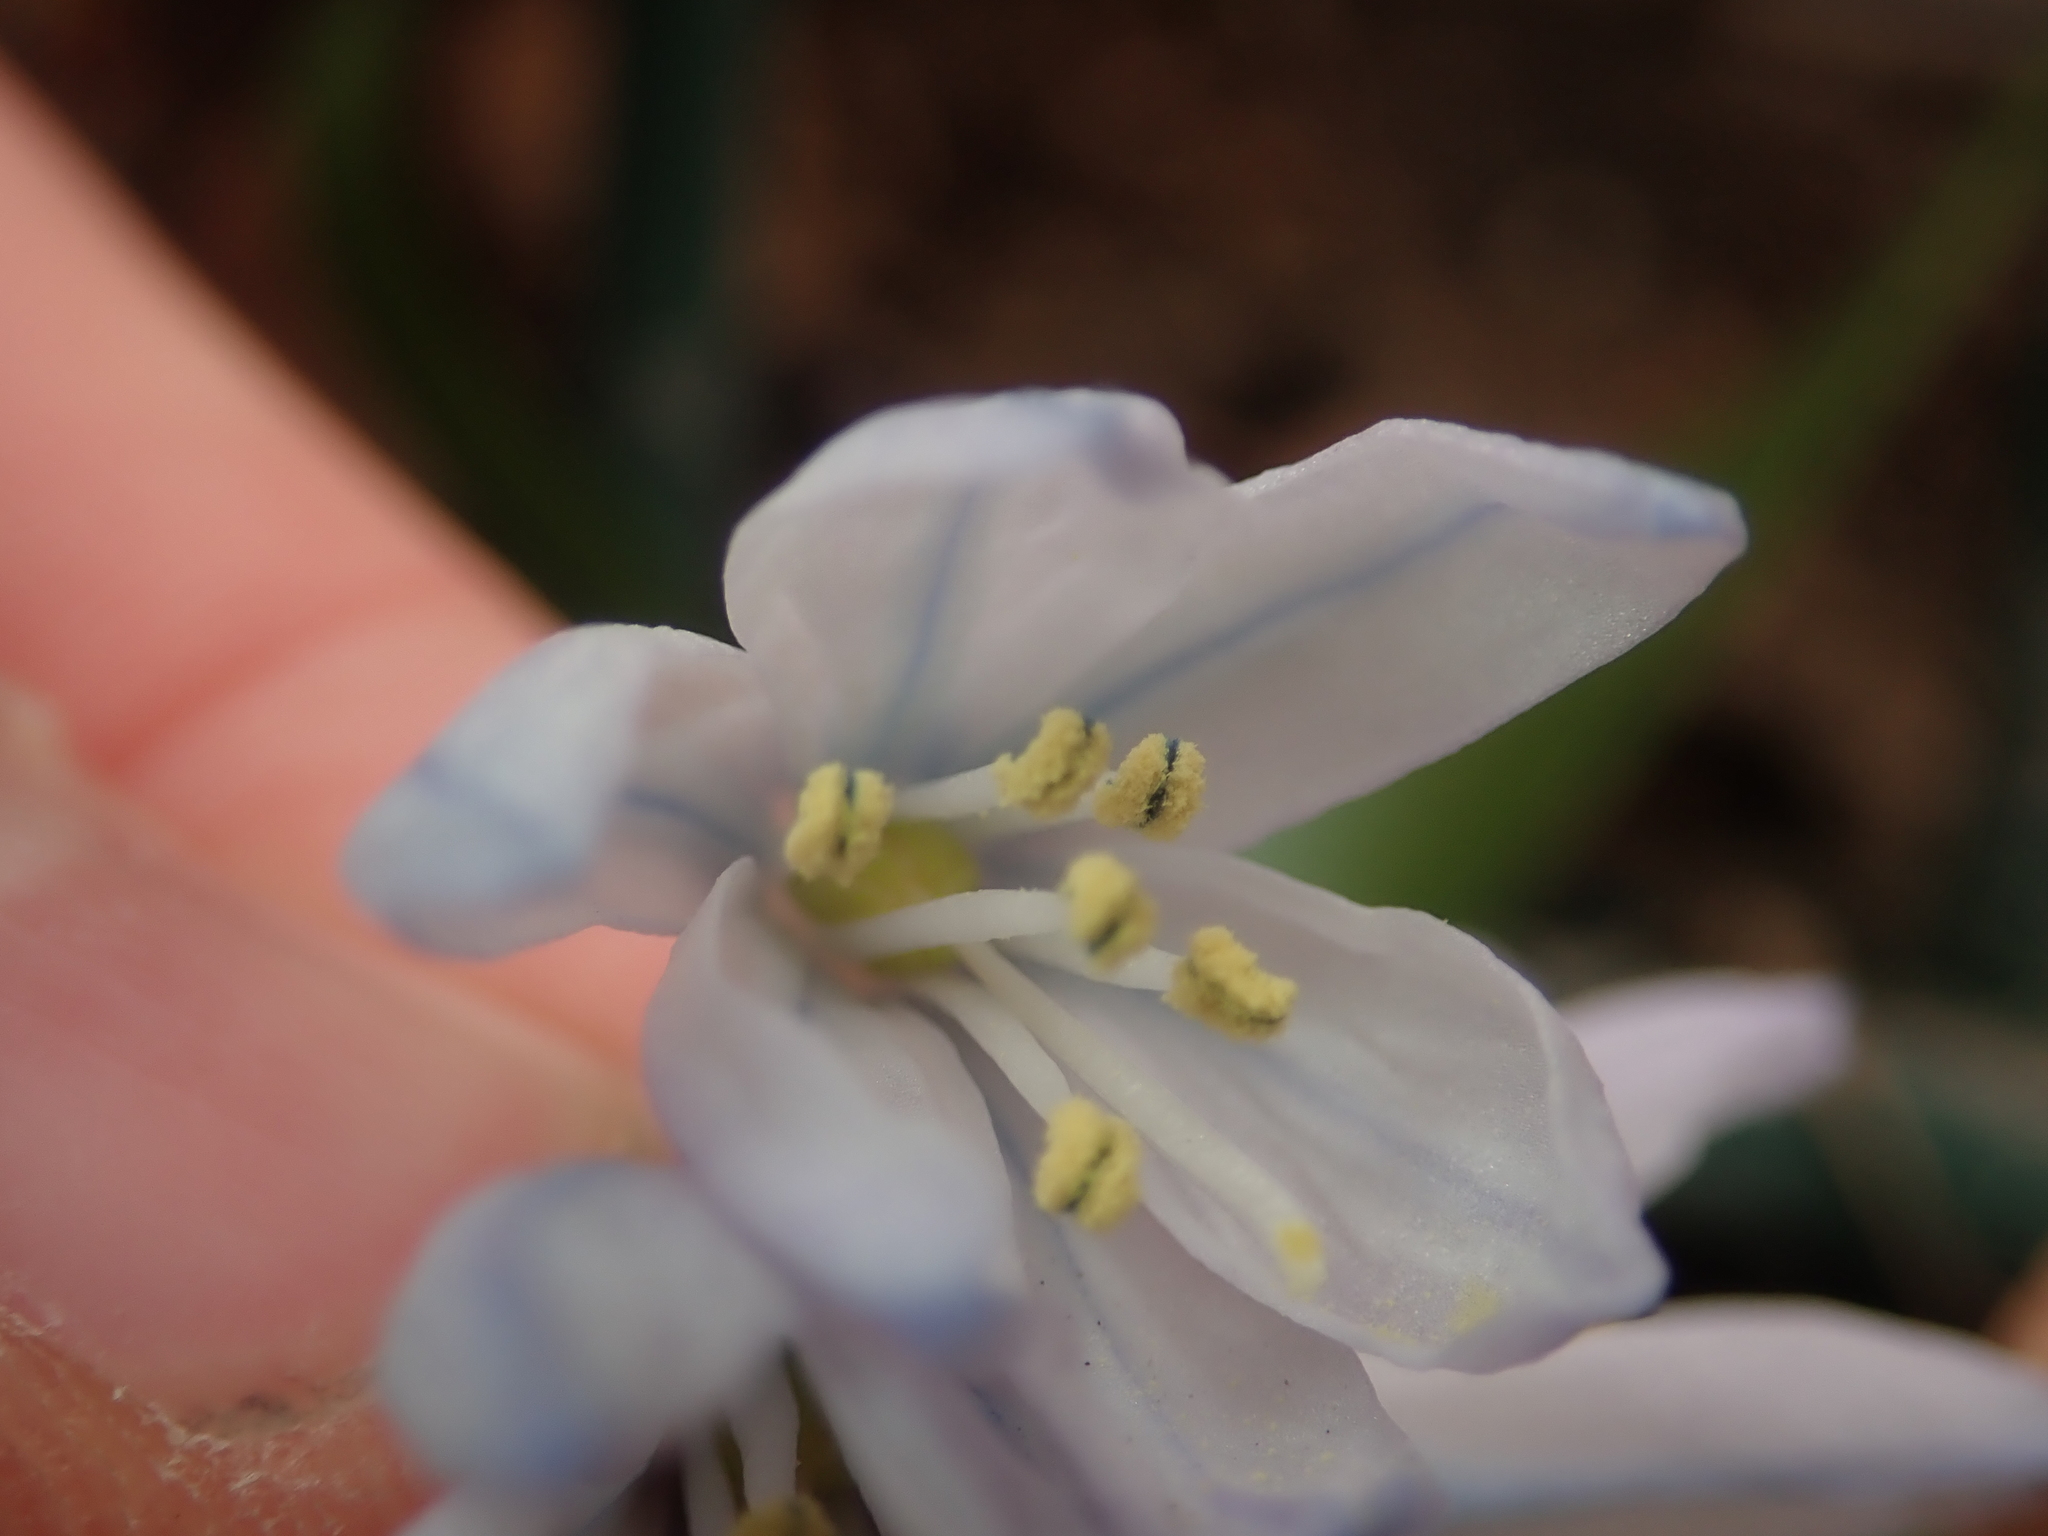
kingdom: Plantae
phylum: Tracheophyta
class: Liliopsida
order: Asparagales
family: Asparagaceae
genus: Scilla
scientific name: Scilla mischtschenkoana
